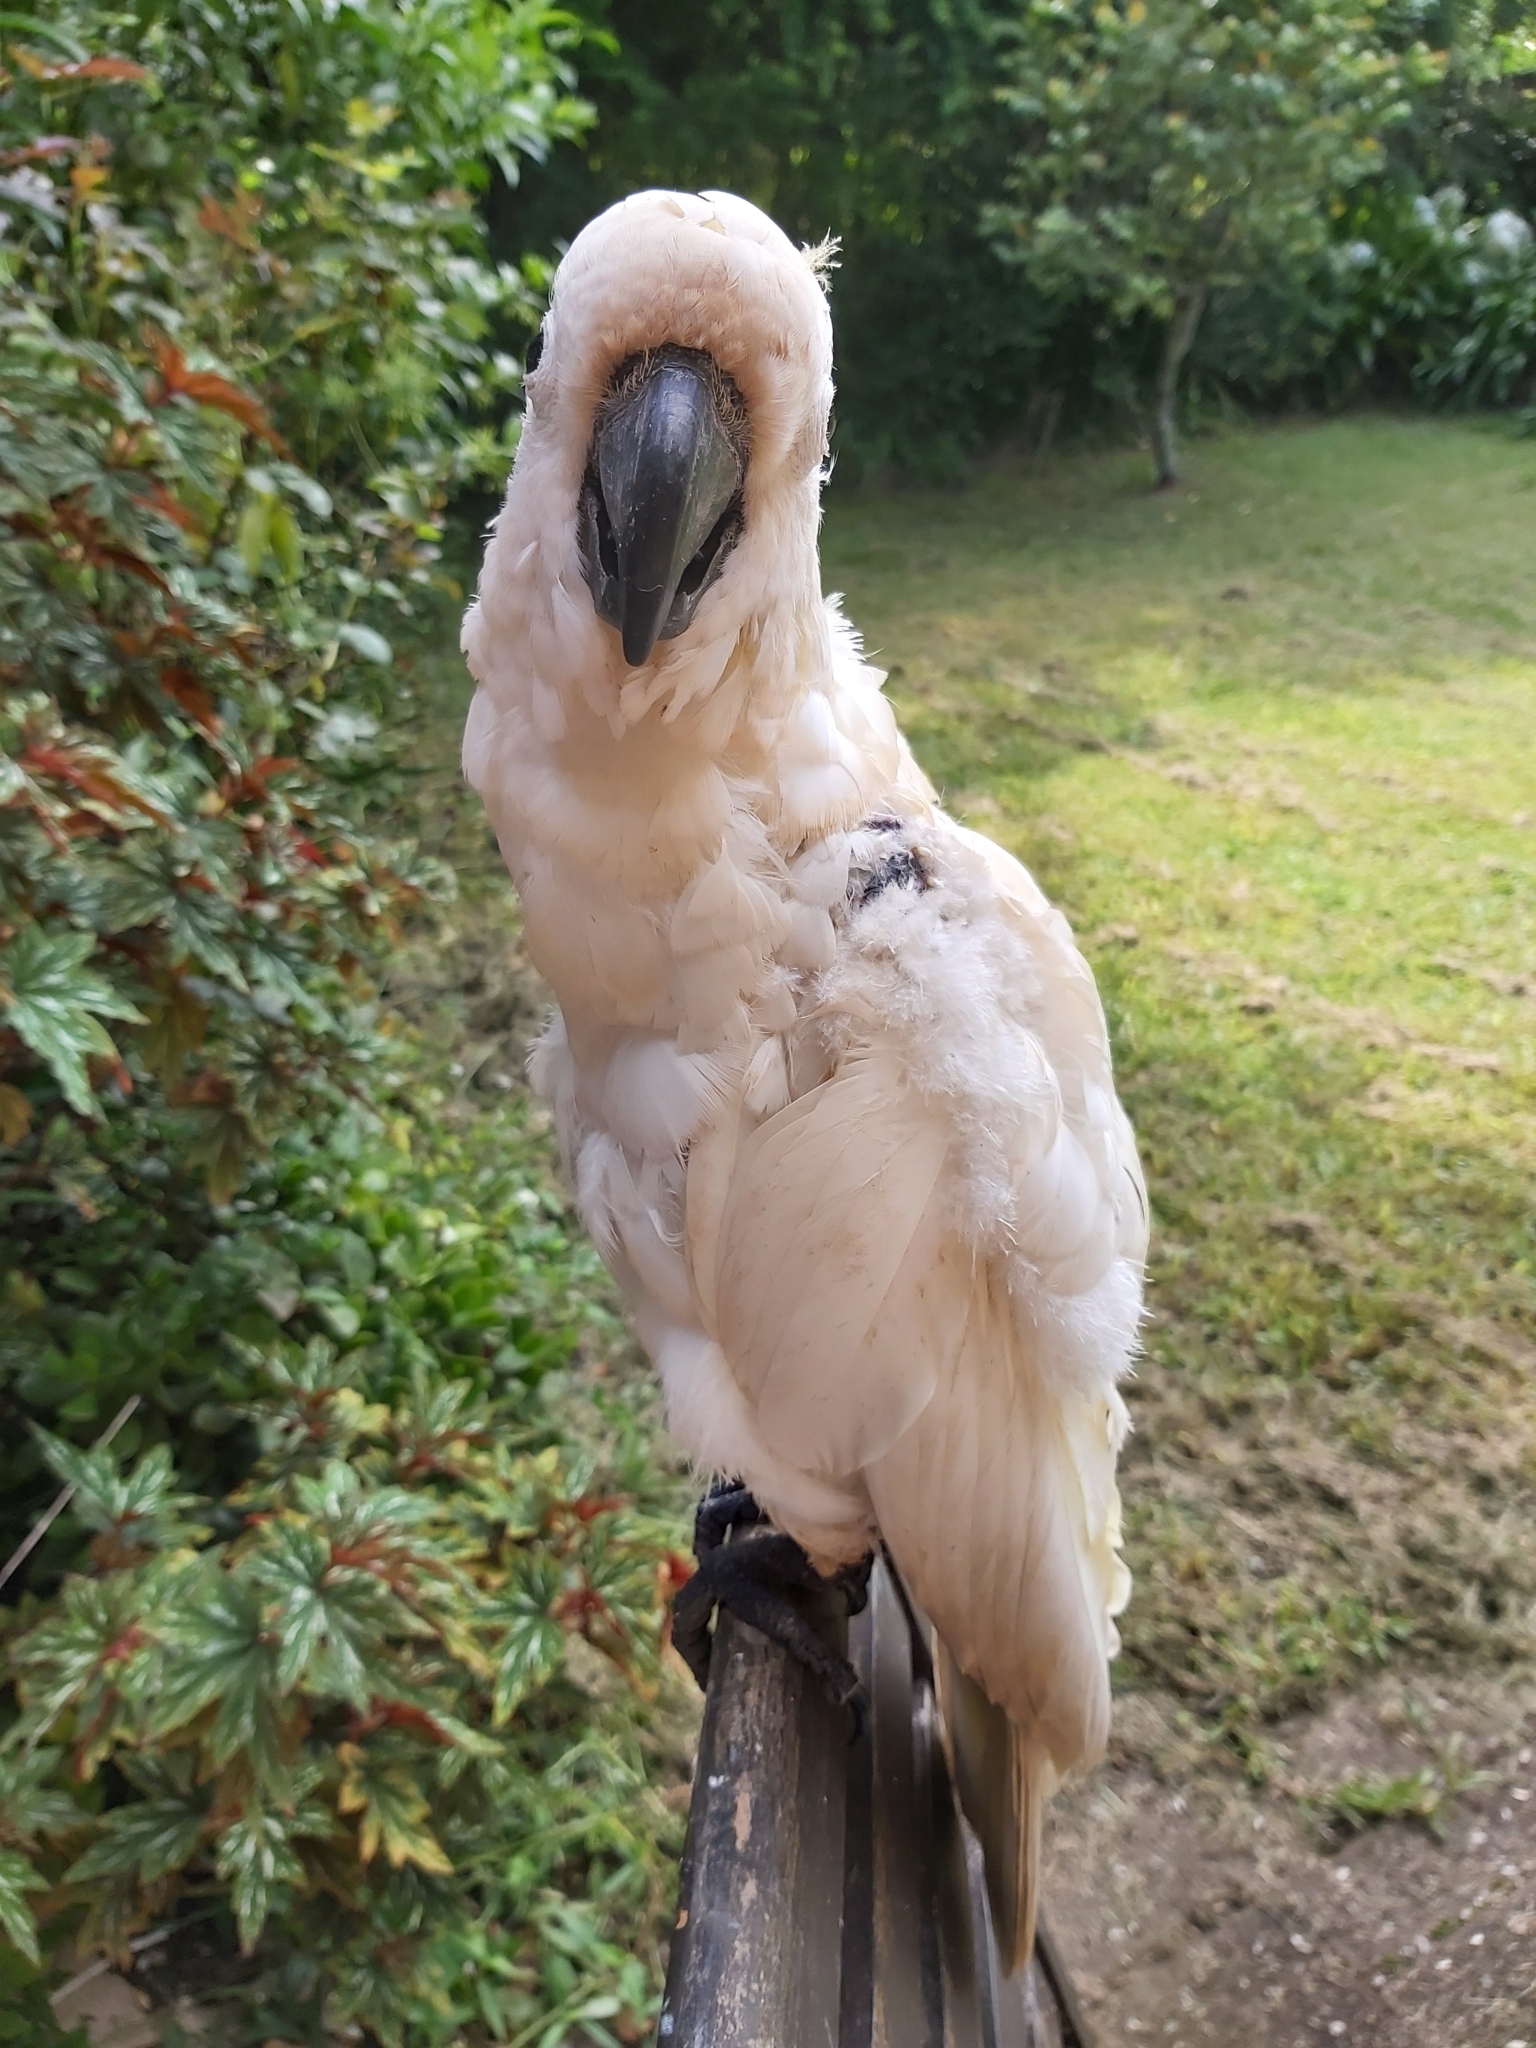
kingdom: Animalia
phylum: Chordata
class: Aves
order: Psittaciformes
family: Psittacidae
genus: Cacatua
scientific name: Cacatua galerita
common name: Sulphur-crested cockatoo
